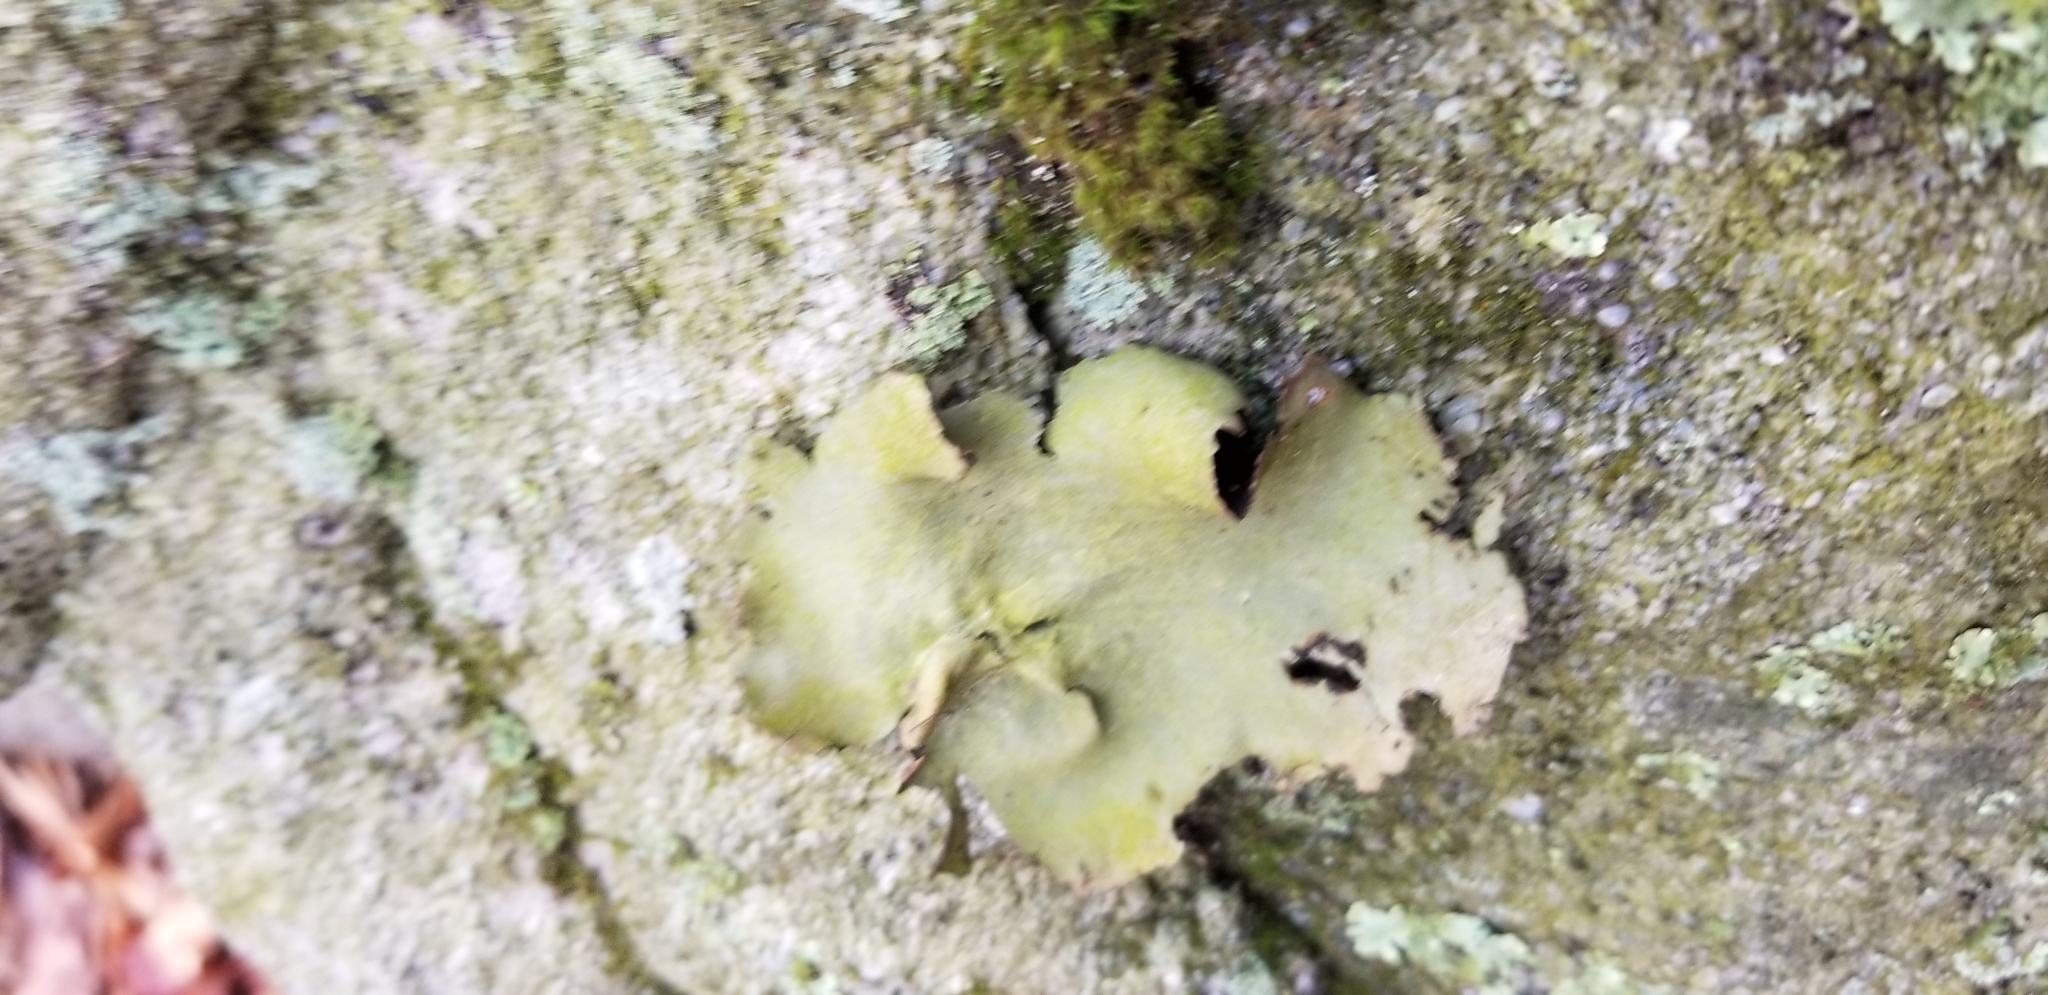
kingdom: Fungi
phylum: Ascomycota
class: Lecanoromycetes
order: Umbilicariales
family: Umbilicariaceae
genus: Umbilicaria
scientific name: Umbilicaria mammulata
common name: Smooth rock tripe
